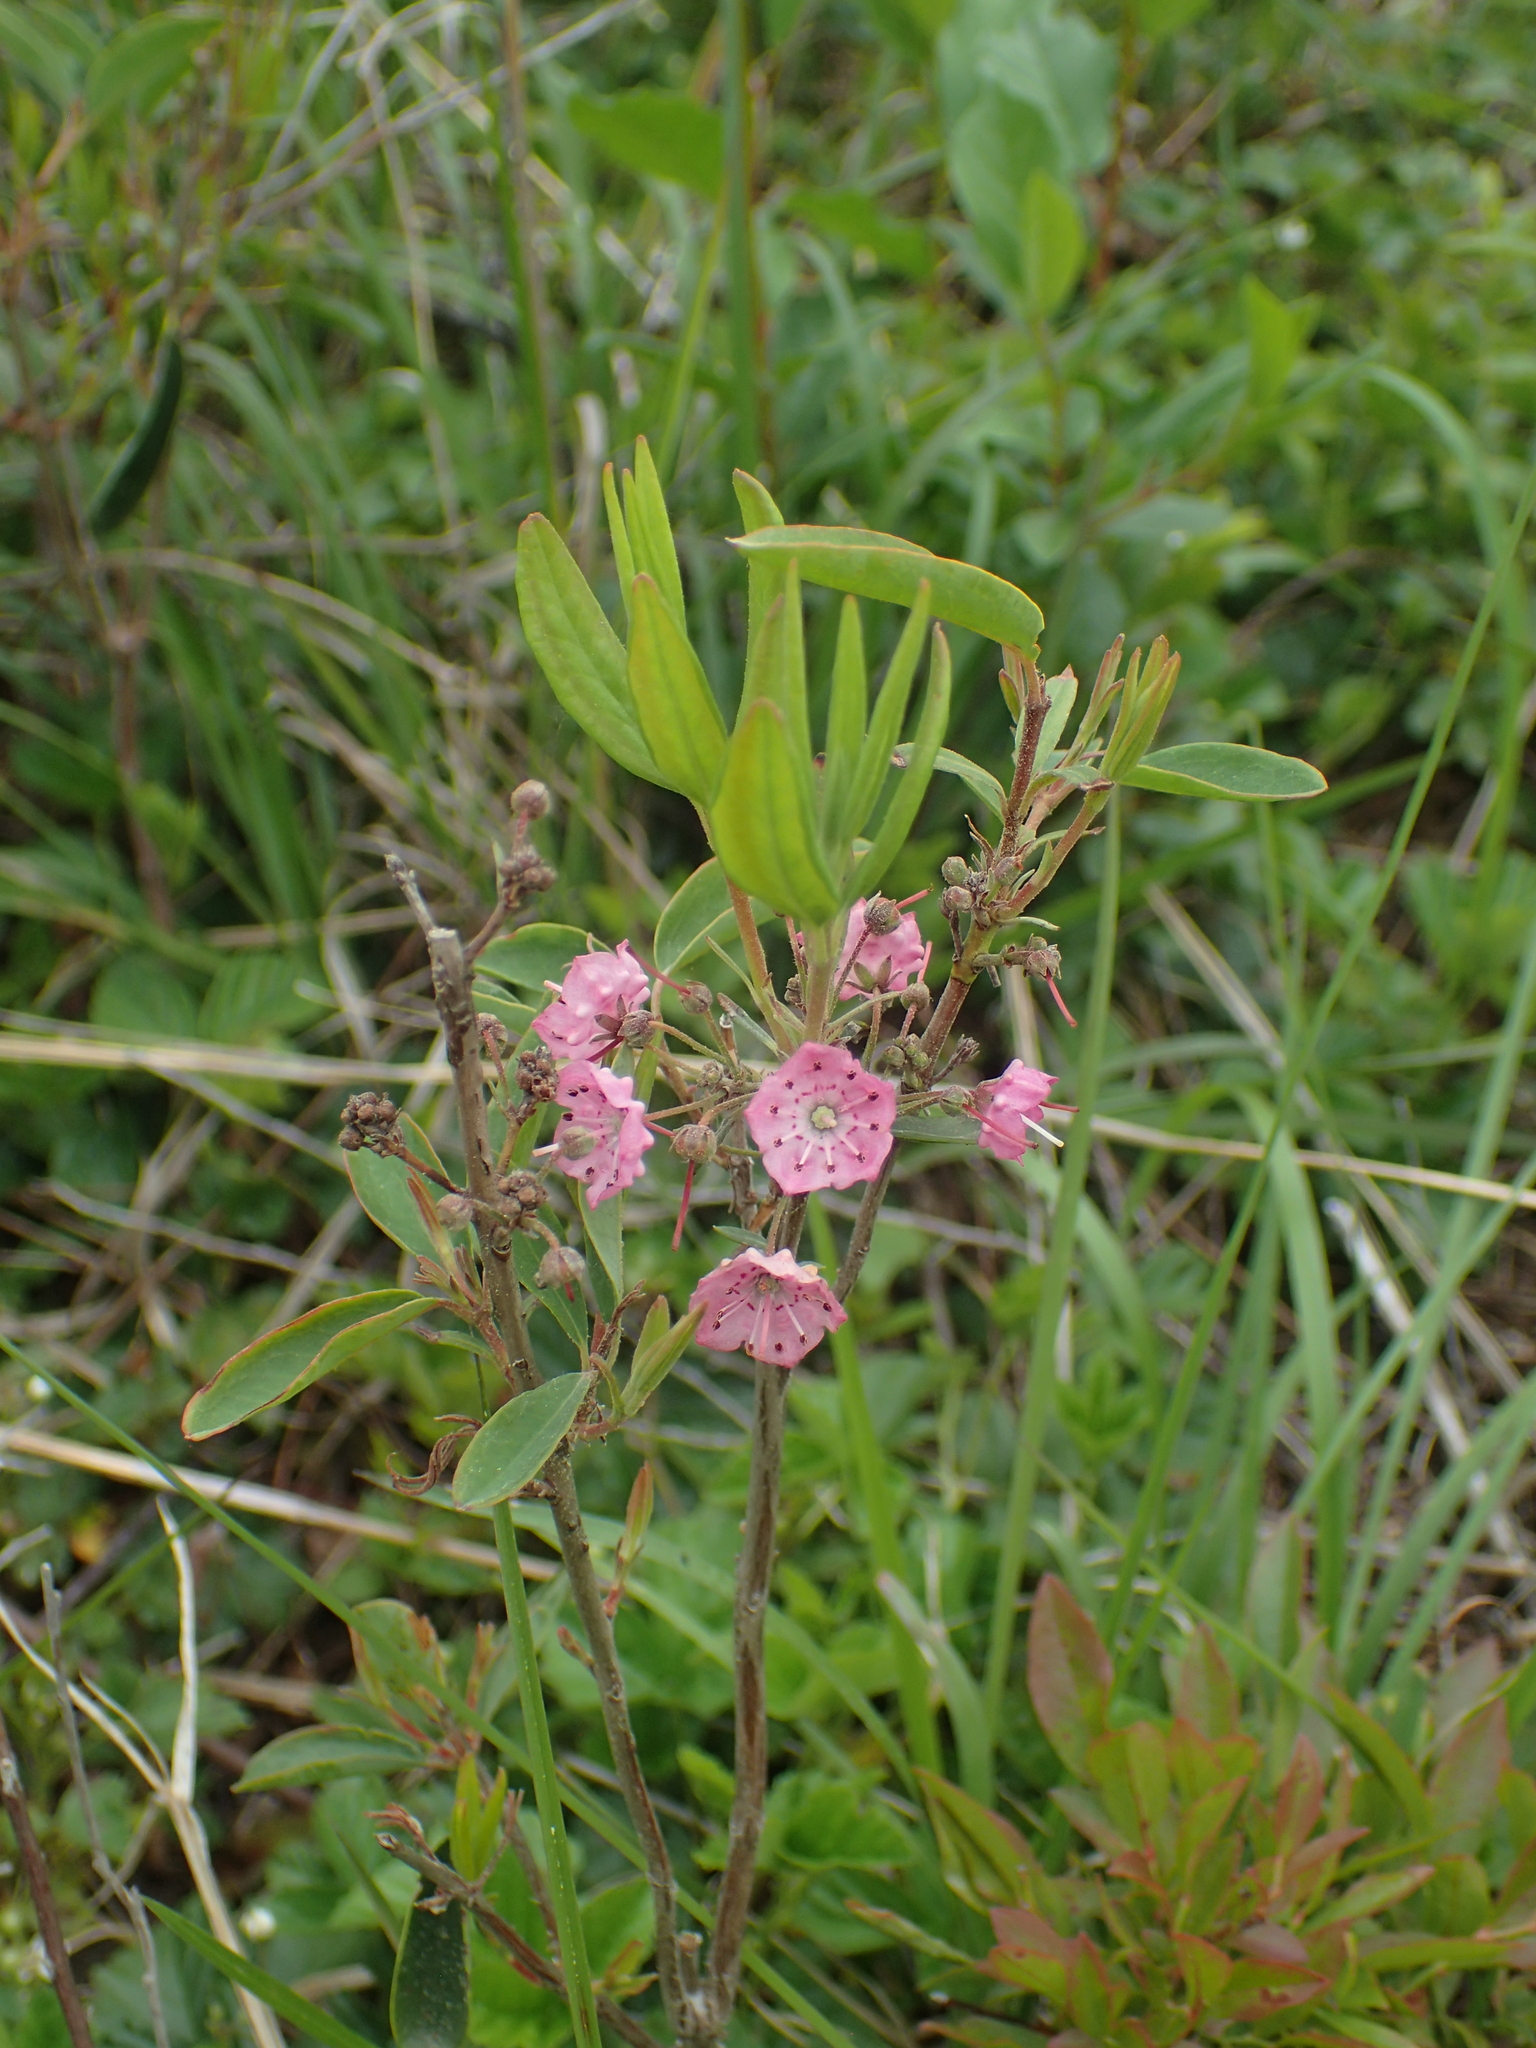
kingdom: Plantae
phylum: Tracheophyta
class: Magnoliopsida
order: Ericales
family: Ericaceae
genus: Kalmia
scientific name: Kalmia angustifolia
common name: Sheep-laurel
